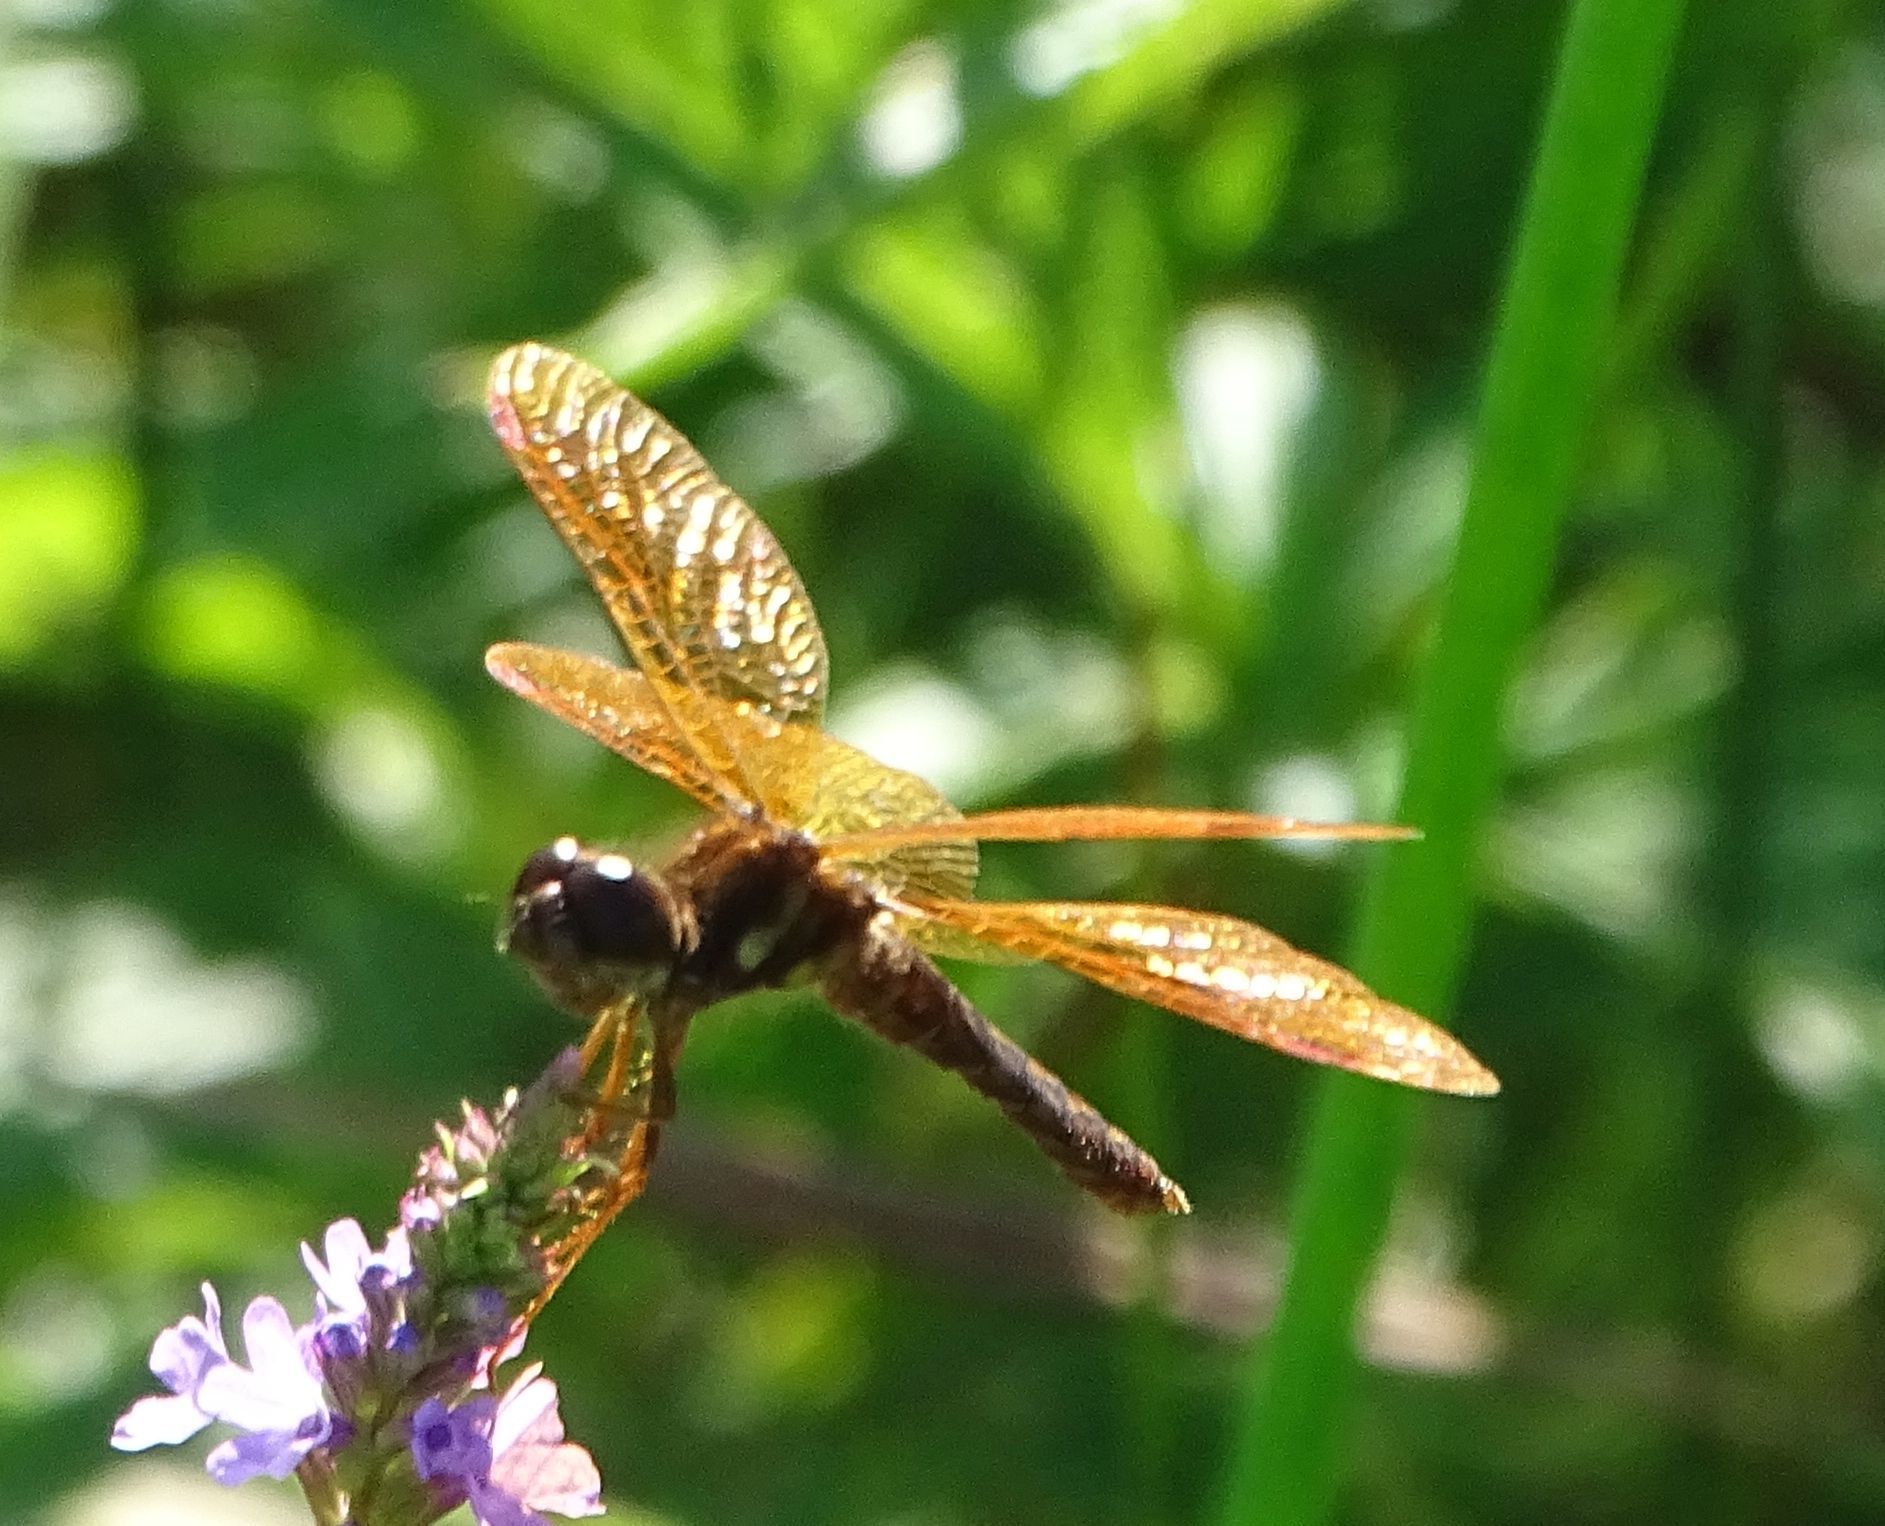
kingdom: Animalia
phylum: Arthropoda
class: Insecta
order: Odonata
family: Libellulidae
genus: Perithemis
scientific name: Perithemis tenera
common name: Eastern amberwing
